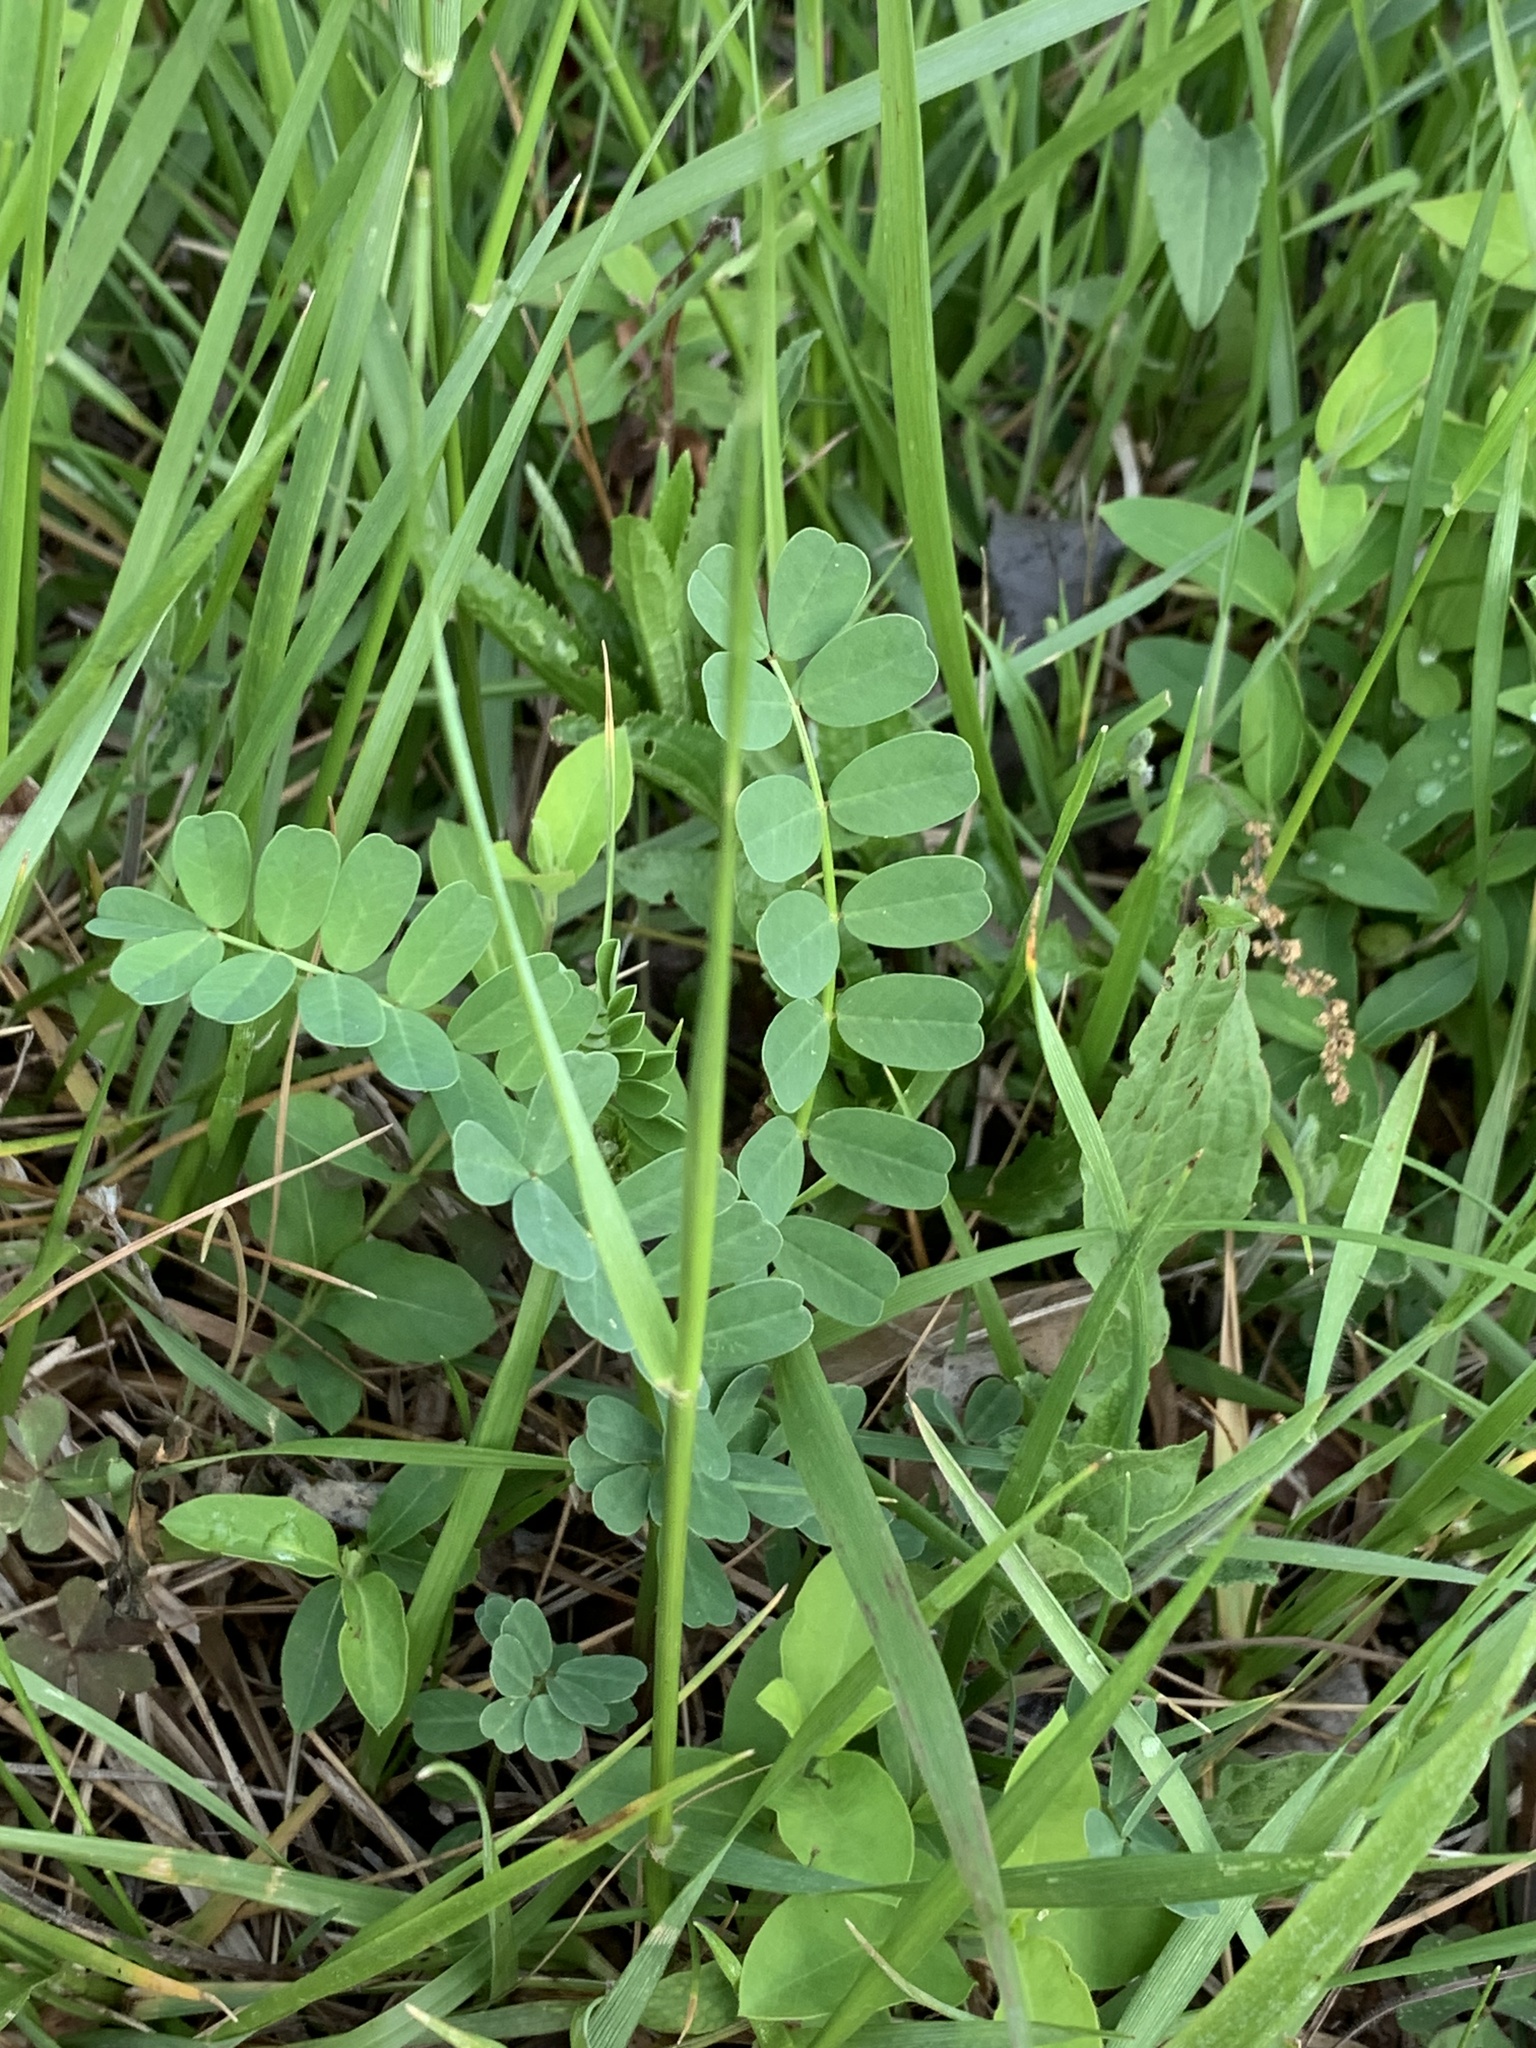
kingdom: Plantae
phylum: Tracheophyta
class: Magnoliopsida
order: Fabales
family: Fabaceae
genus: Coronilla
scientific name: Coronilla varia
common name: Crownvetch
